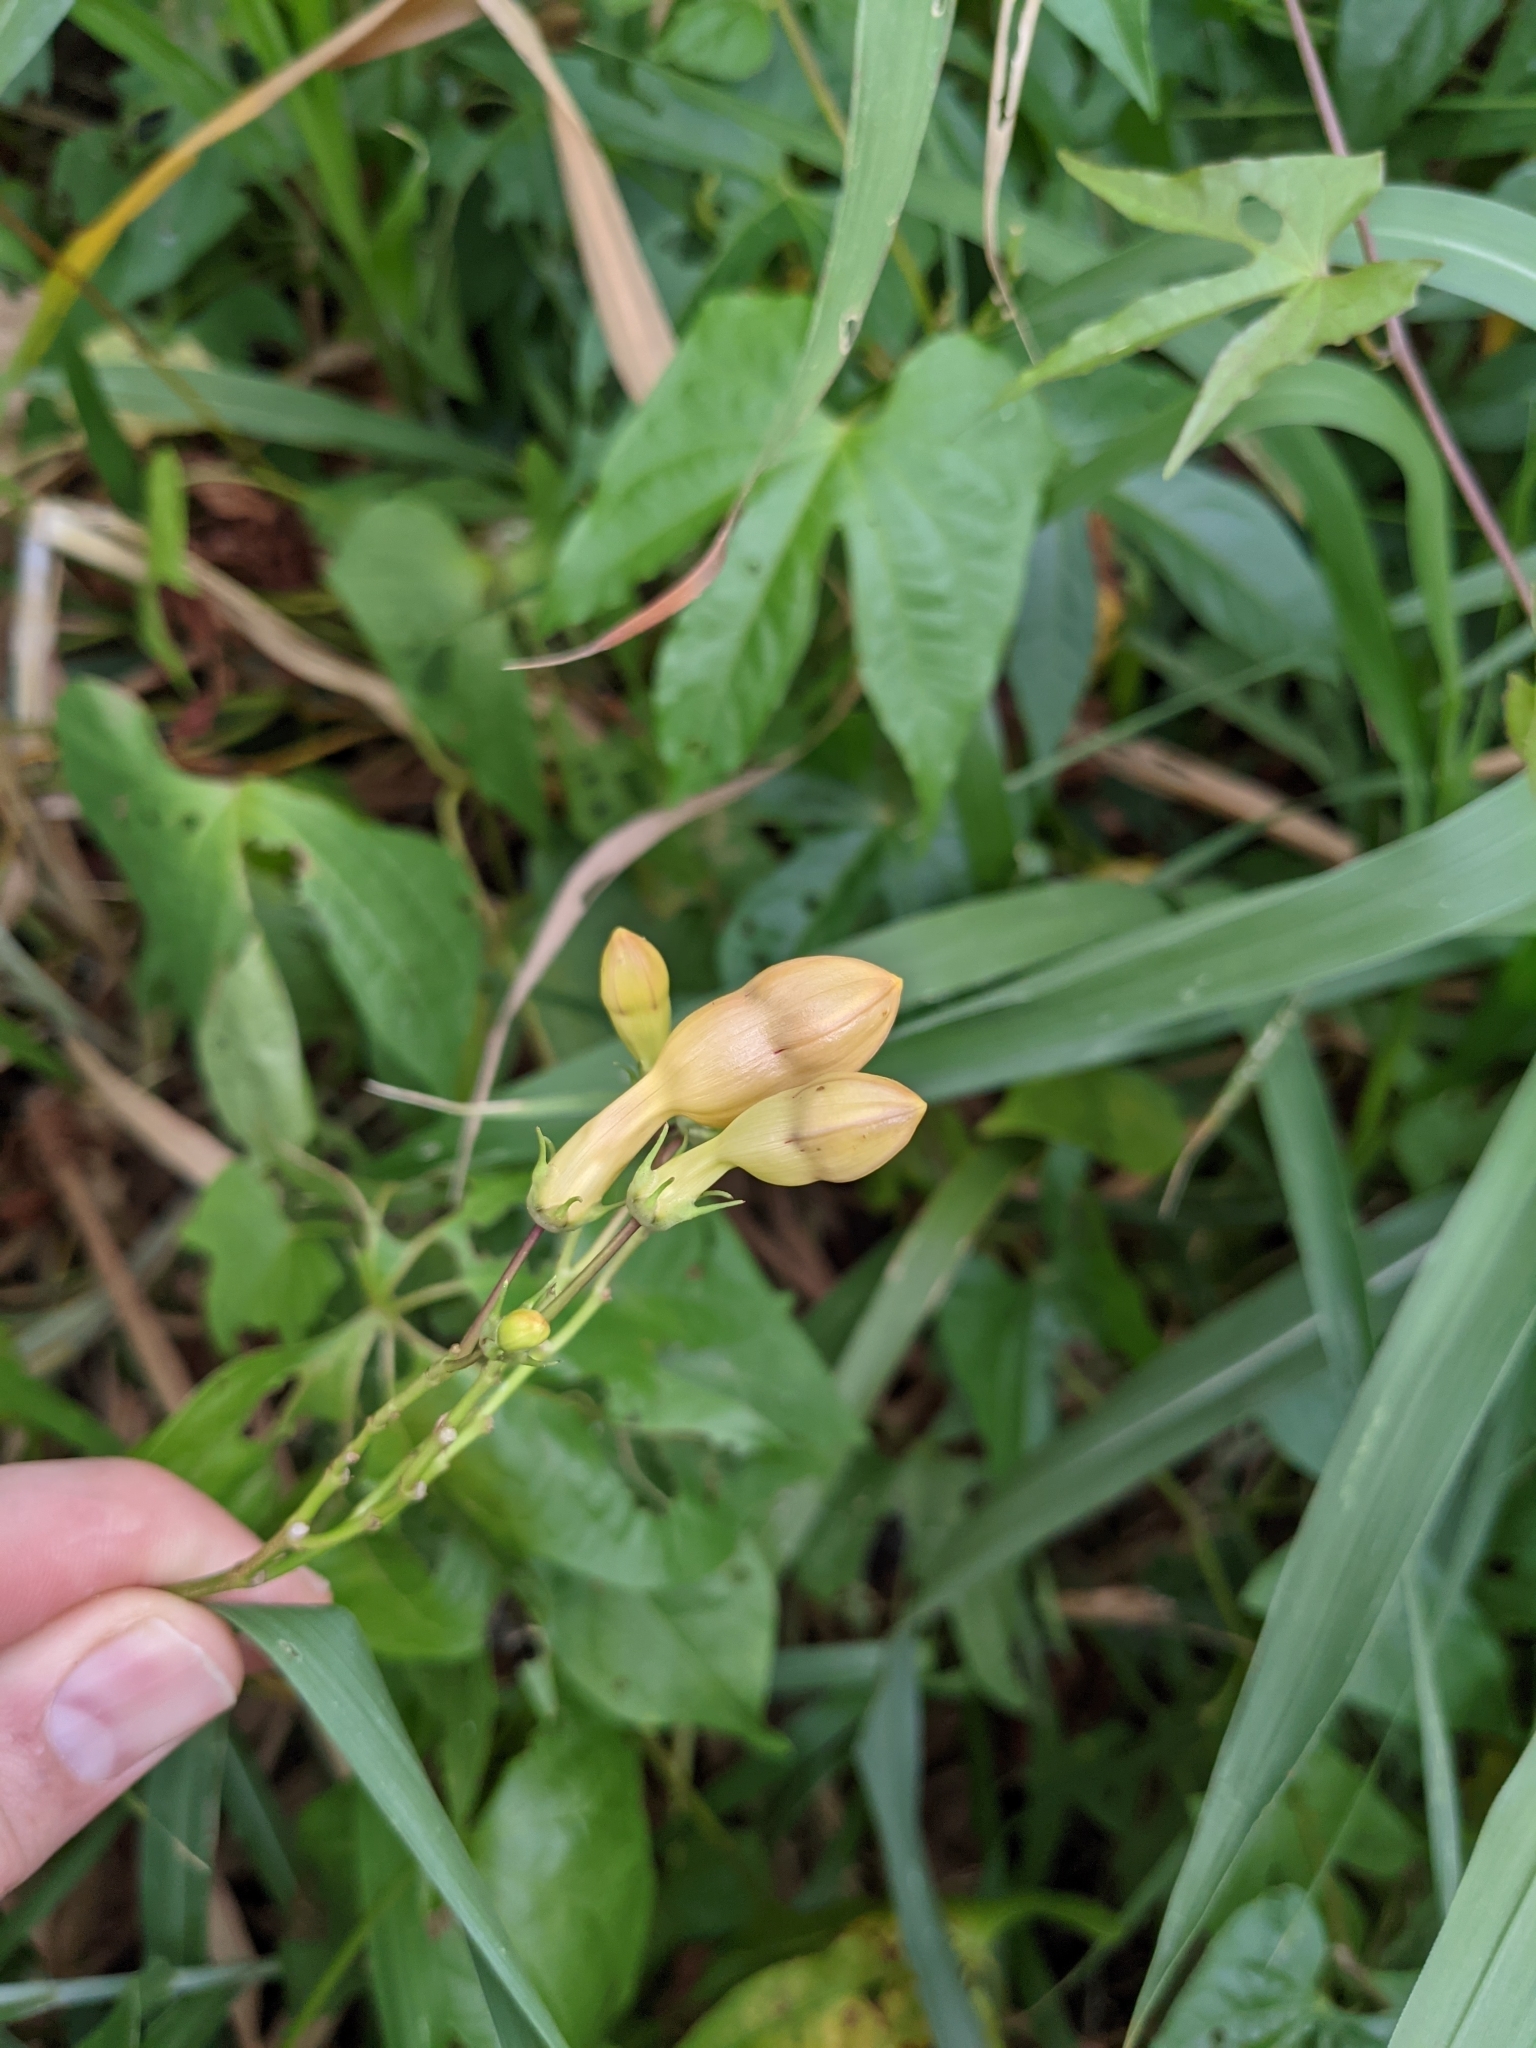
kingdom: Plantae
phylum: Tracheophyta
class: Magnoliopsida
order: Solanales
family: Convolvulaceae
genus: Ipomoea
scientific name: Ipomoea neei
